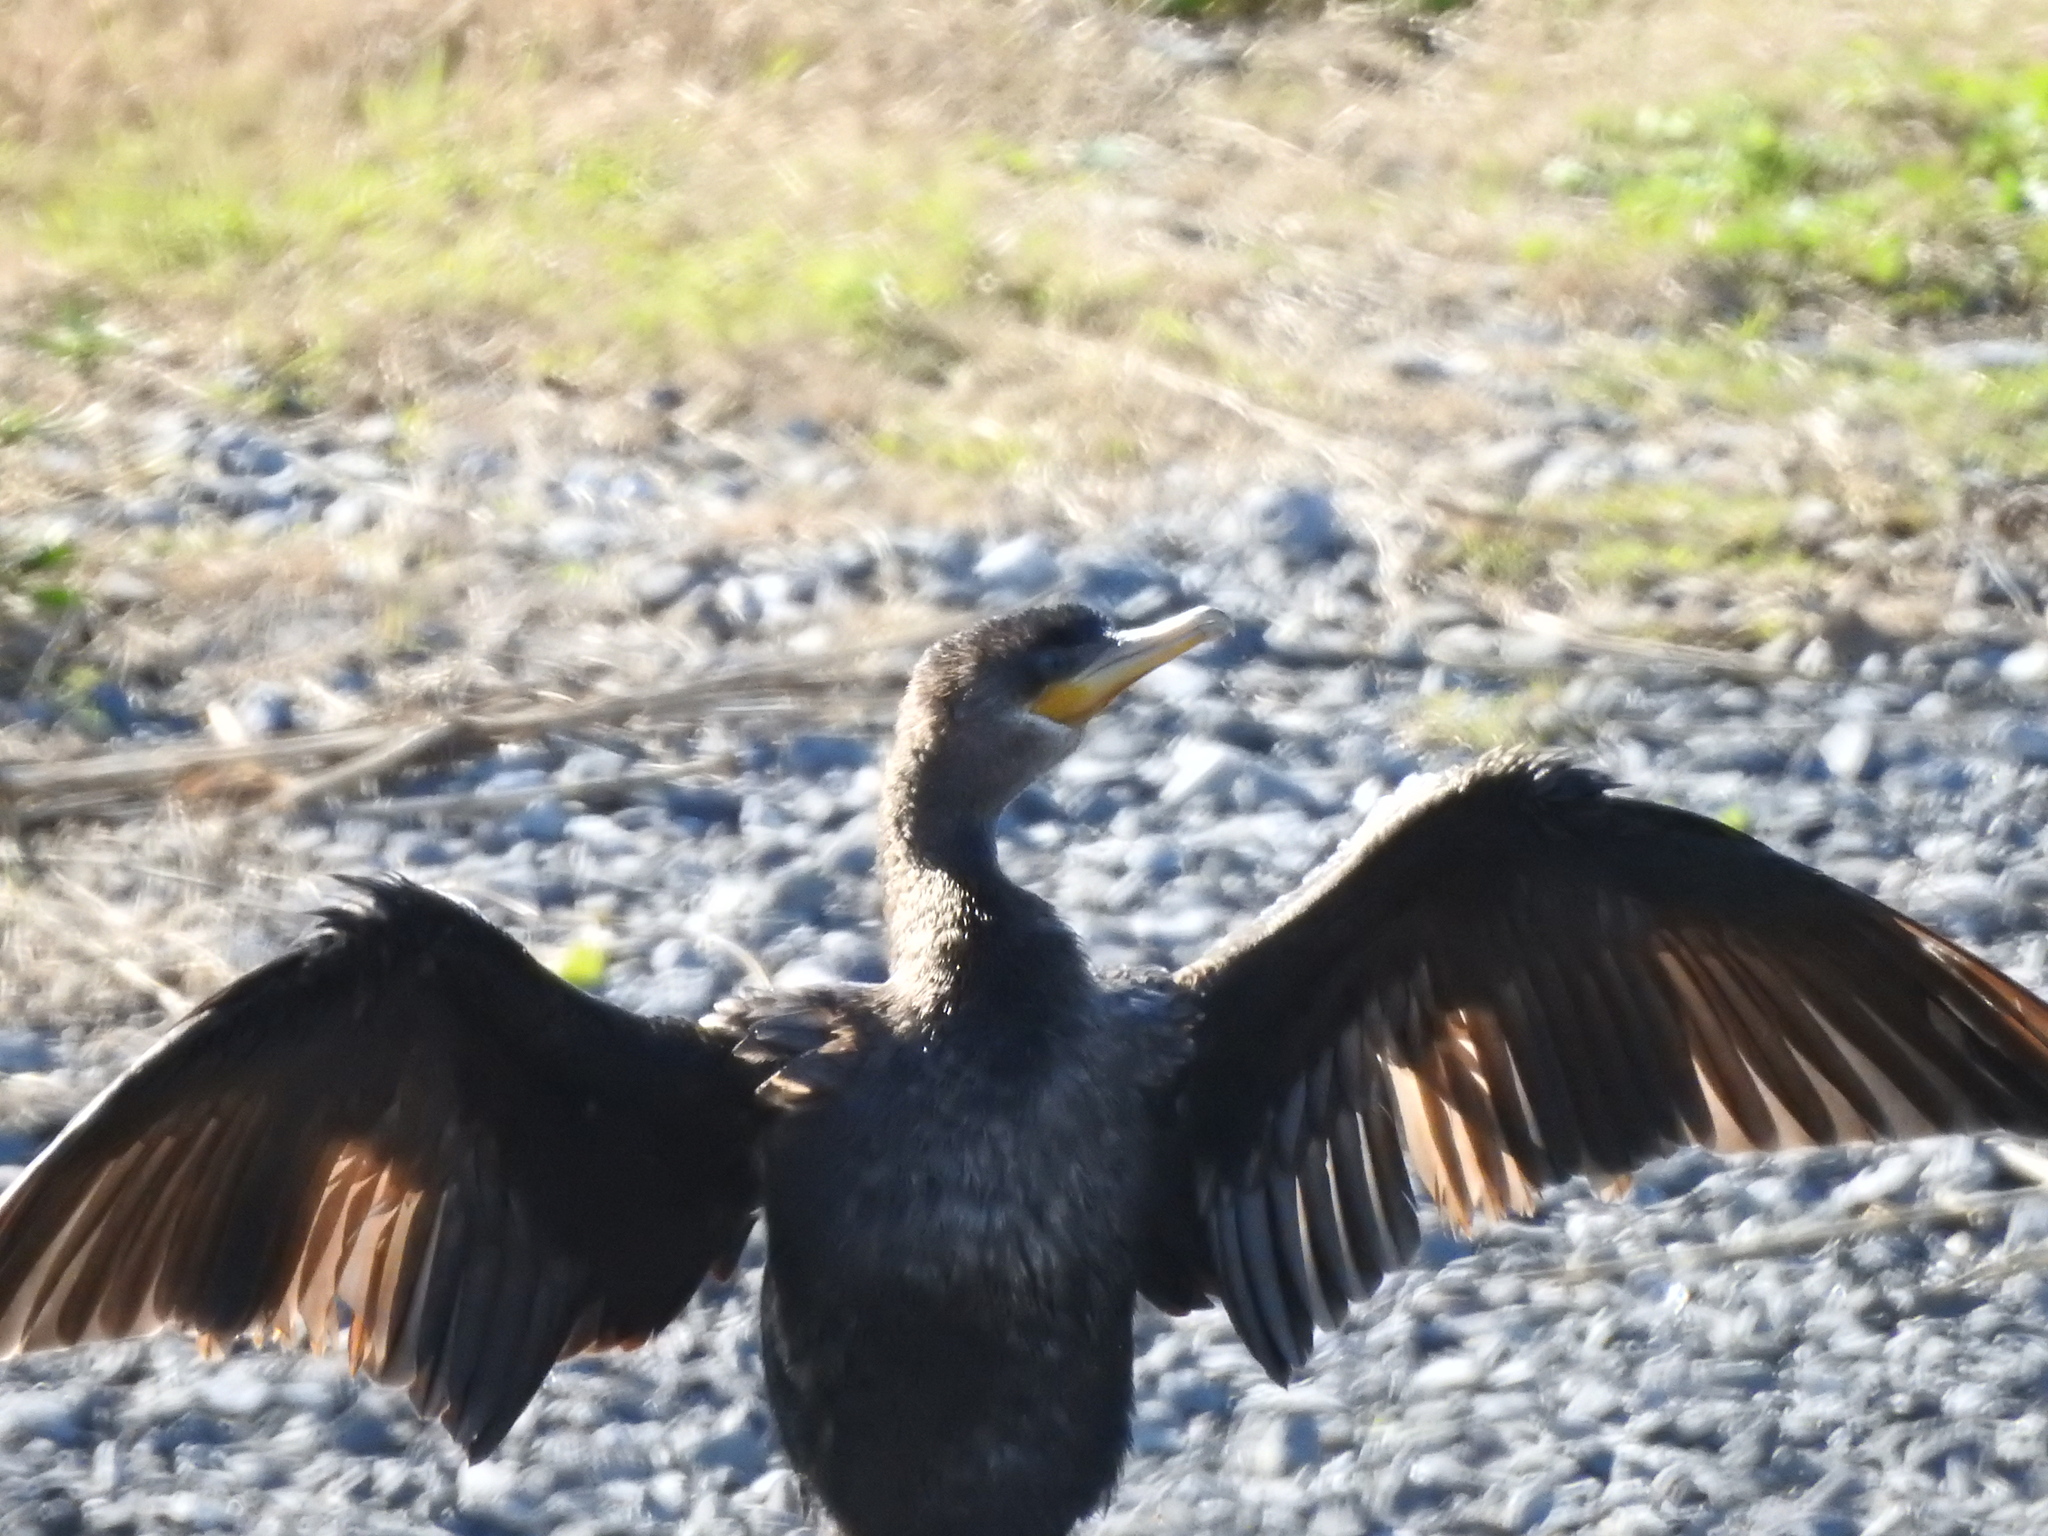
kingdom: Animalia
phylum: Chordata
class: Aves
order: Suliformes
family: Phalacrocoracidae
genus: Phalacrocorax
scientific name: Phalacrocorax brasilianus
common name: Neotropic cormorant
